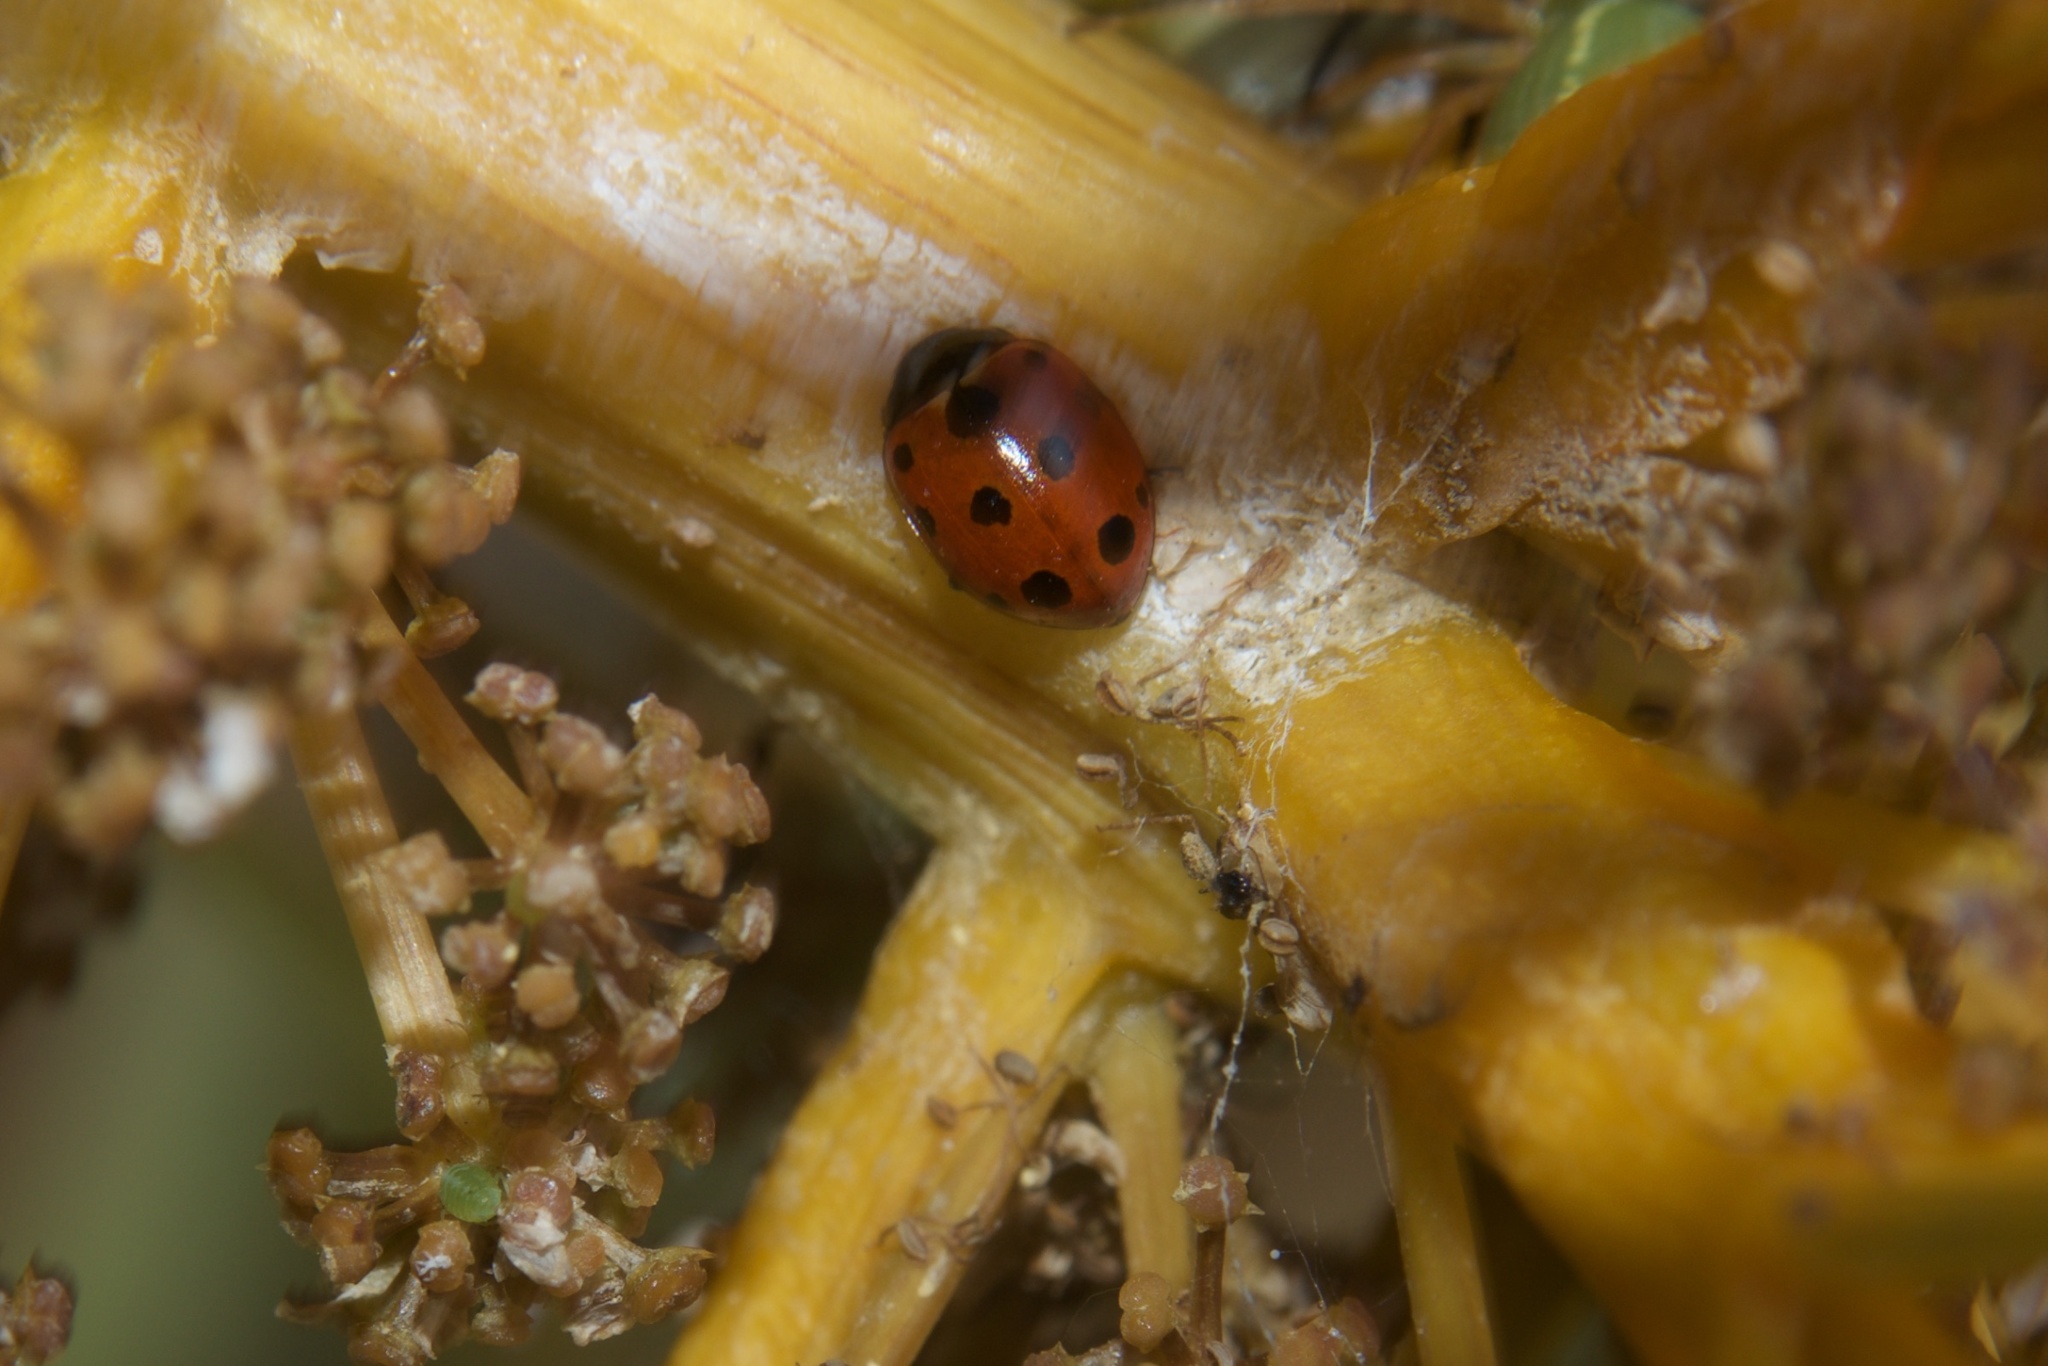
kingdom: Animalia
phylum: Arthropoda
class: Insecta
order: Coleoptera
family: Coccinellidae
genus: Coccinella
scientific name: Coccinella undecimpunctata
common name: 11-spot ladybird
